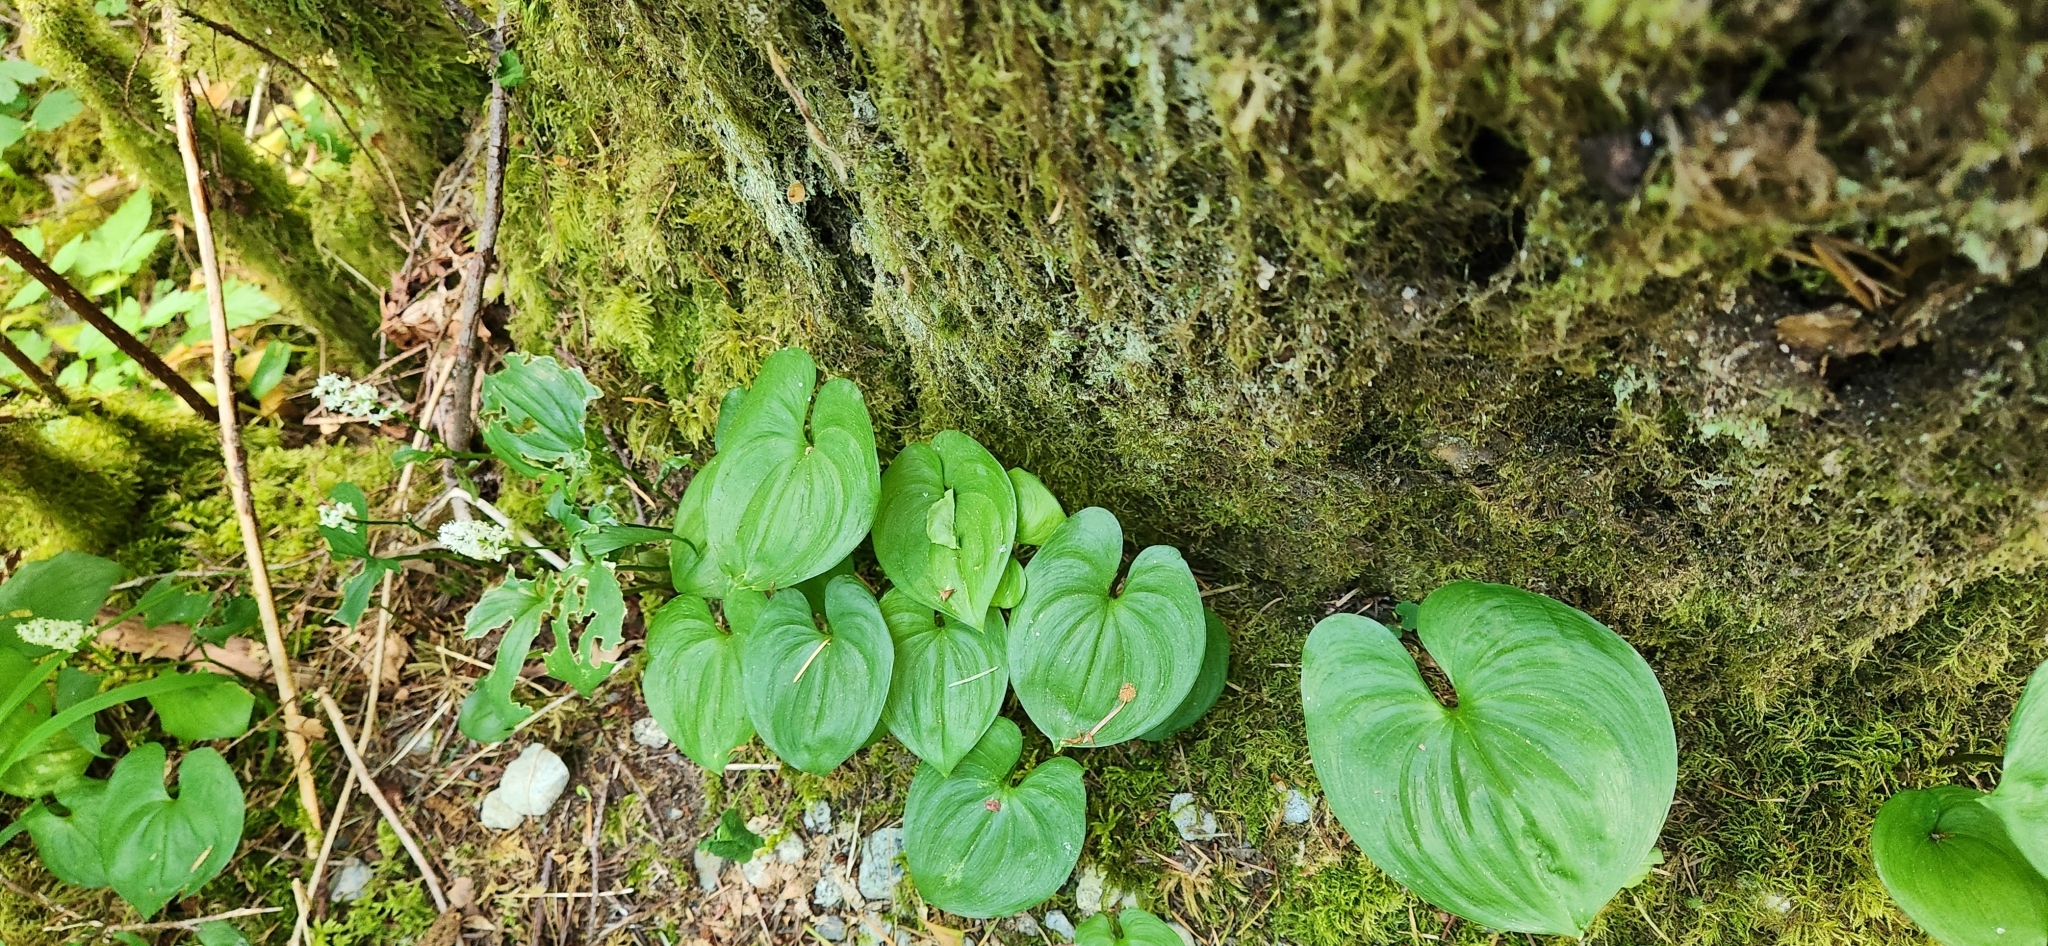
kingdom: Plantae
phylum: Tracheophyta
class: Liliopsida
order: Asparagales
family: Asparagaceae
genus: Maianthemum
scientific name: Maianthemum dilatatum
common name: False lily-of-the-valley
